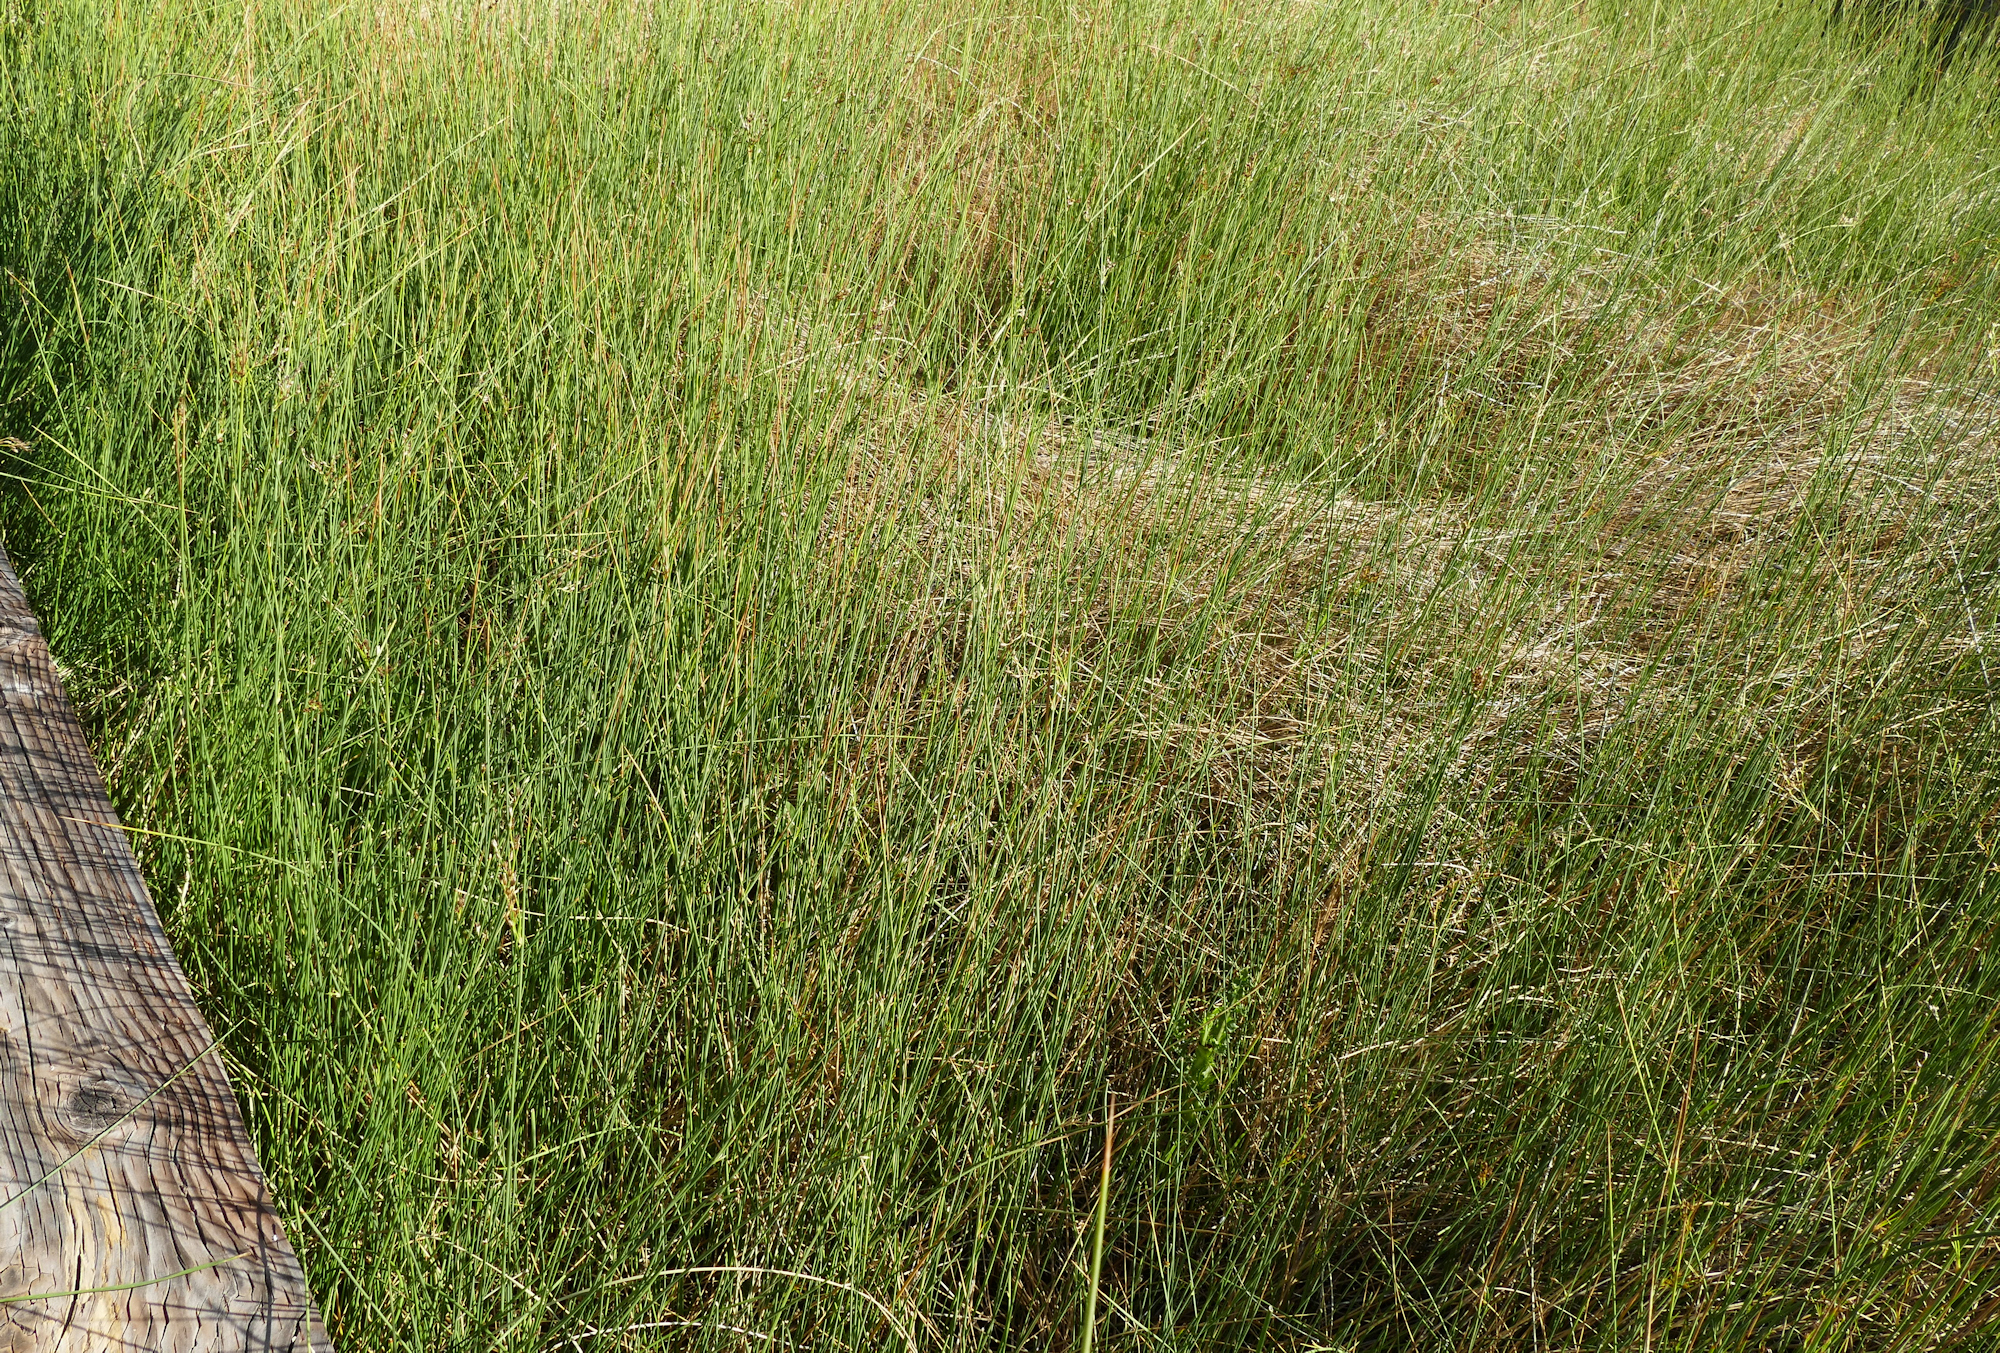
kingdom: Plantae
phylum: Tracheophyta
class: Liliopsida
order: Poales
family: Juncaceae
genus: Juncus
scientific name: Juncus balticus
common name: Baltic rush
